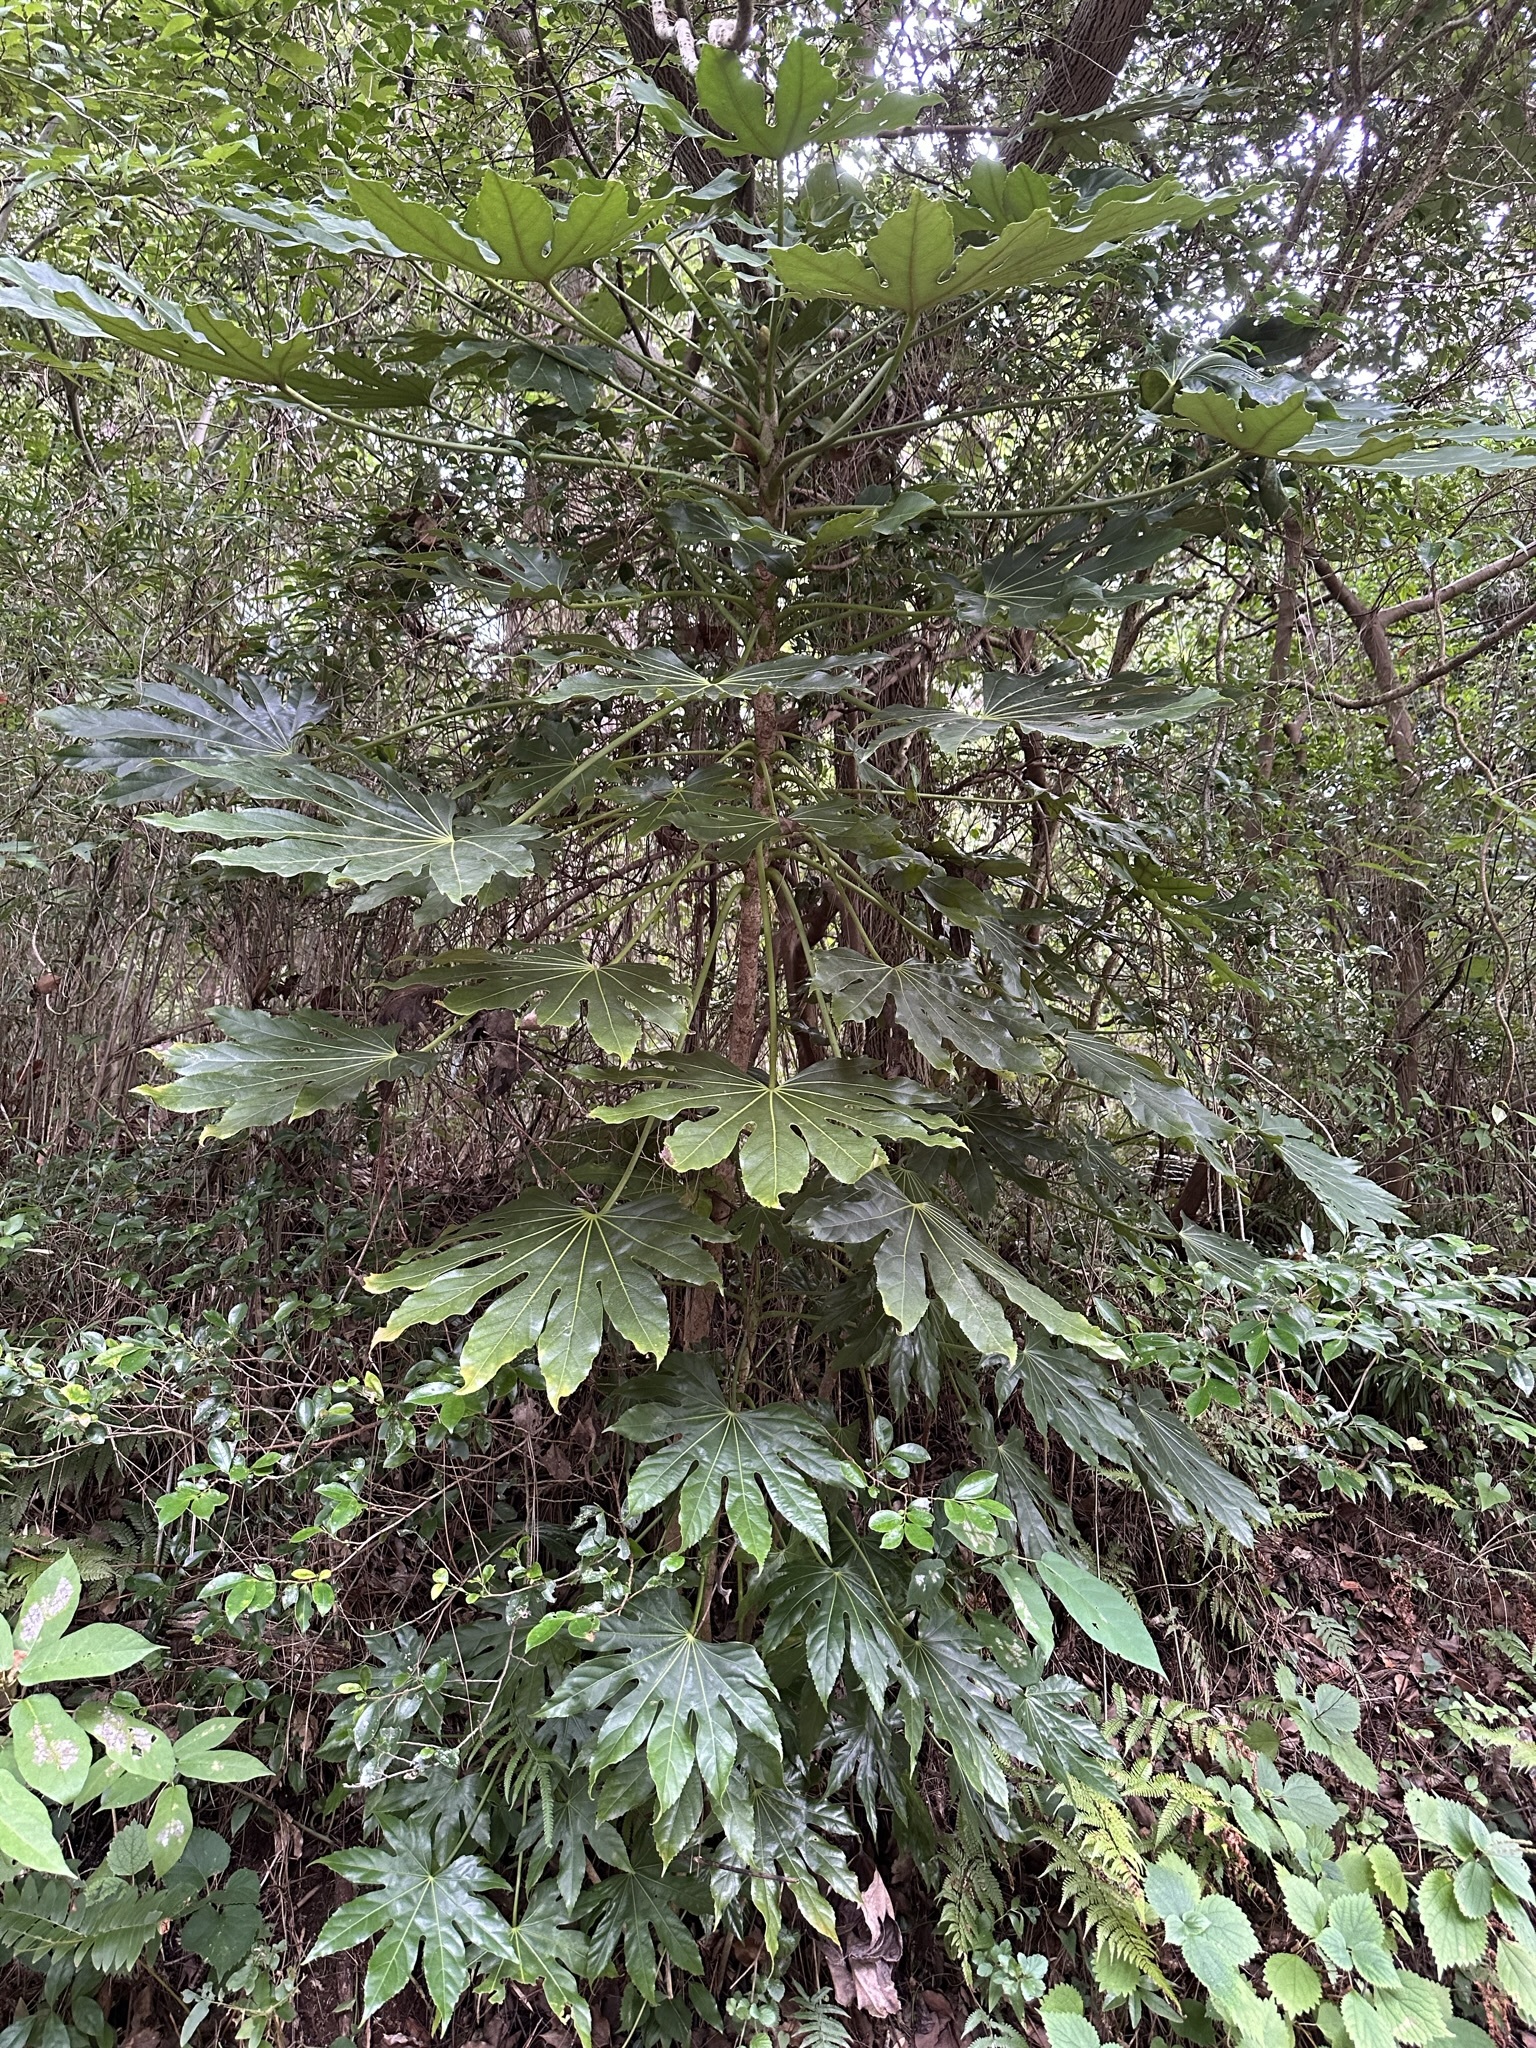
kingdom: Plantae
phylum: Tracheophyta
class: Magnoliopsida
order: Apiales
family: Araliaceae
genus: Fatsia
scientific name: Fatsia japonica
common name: Fatsia
